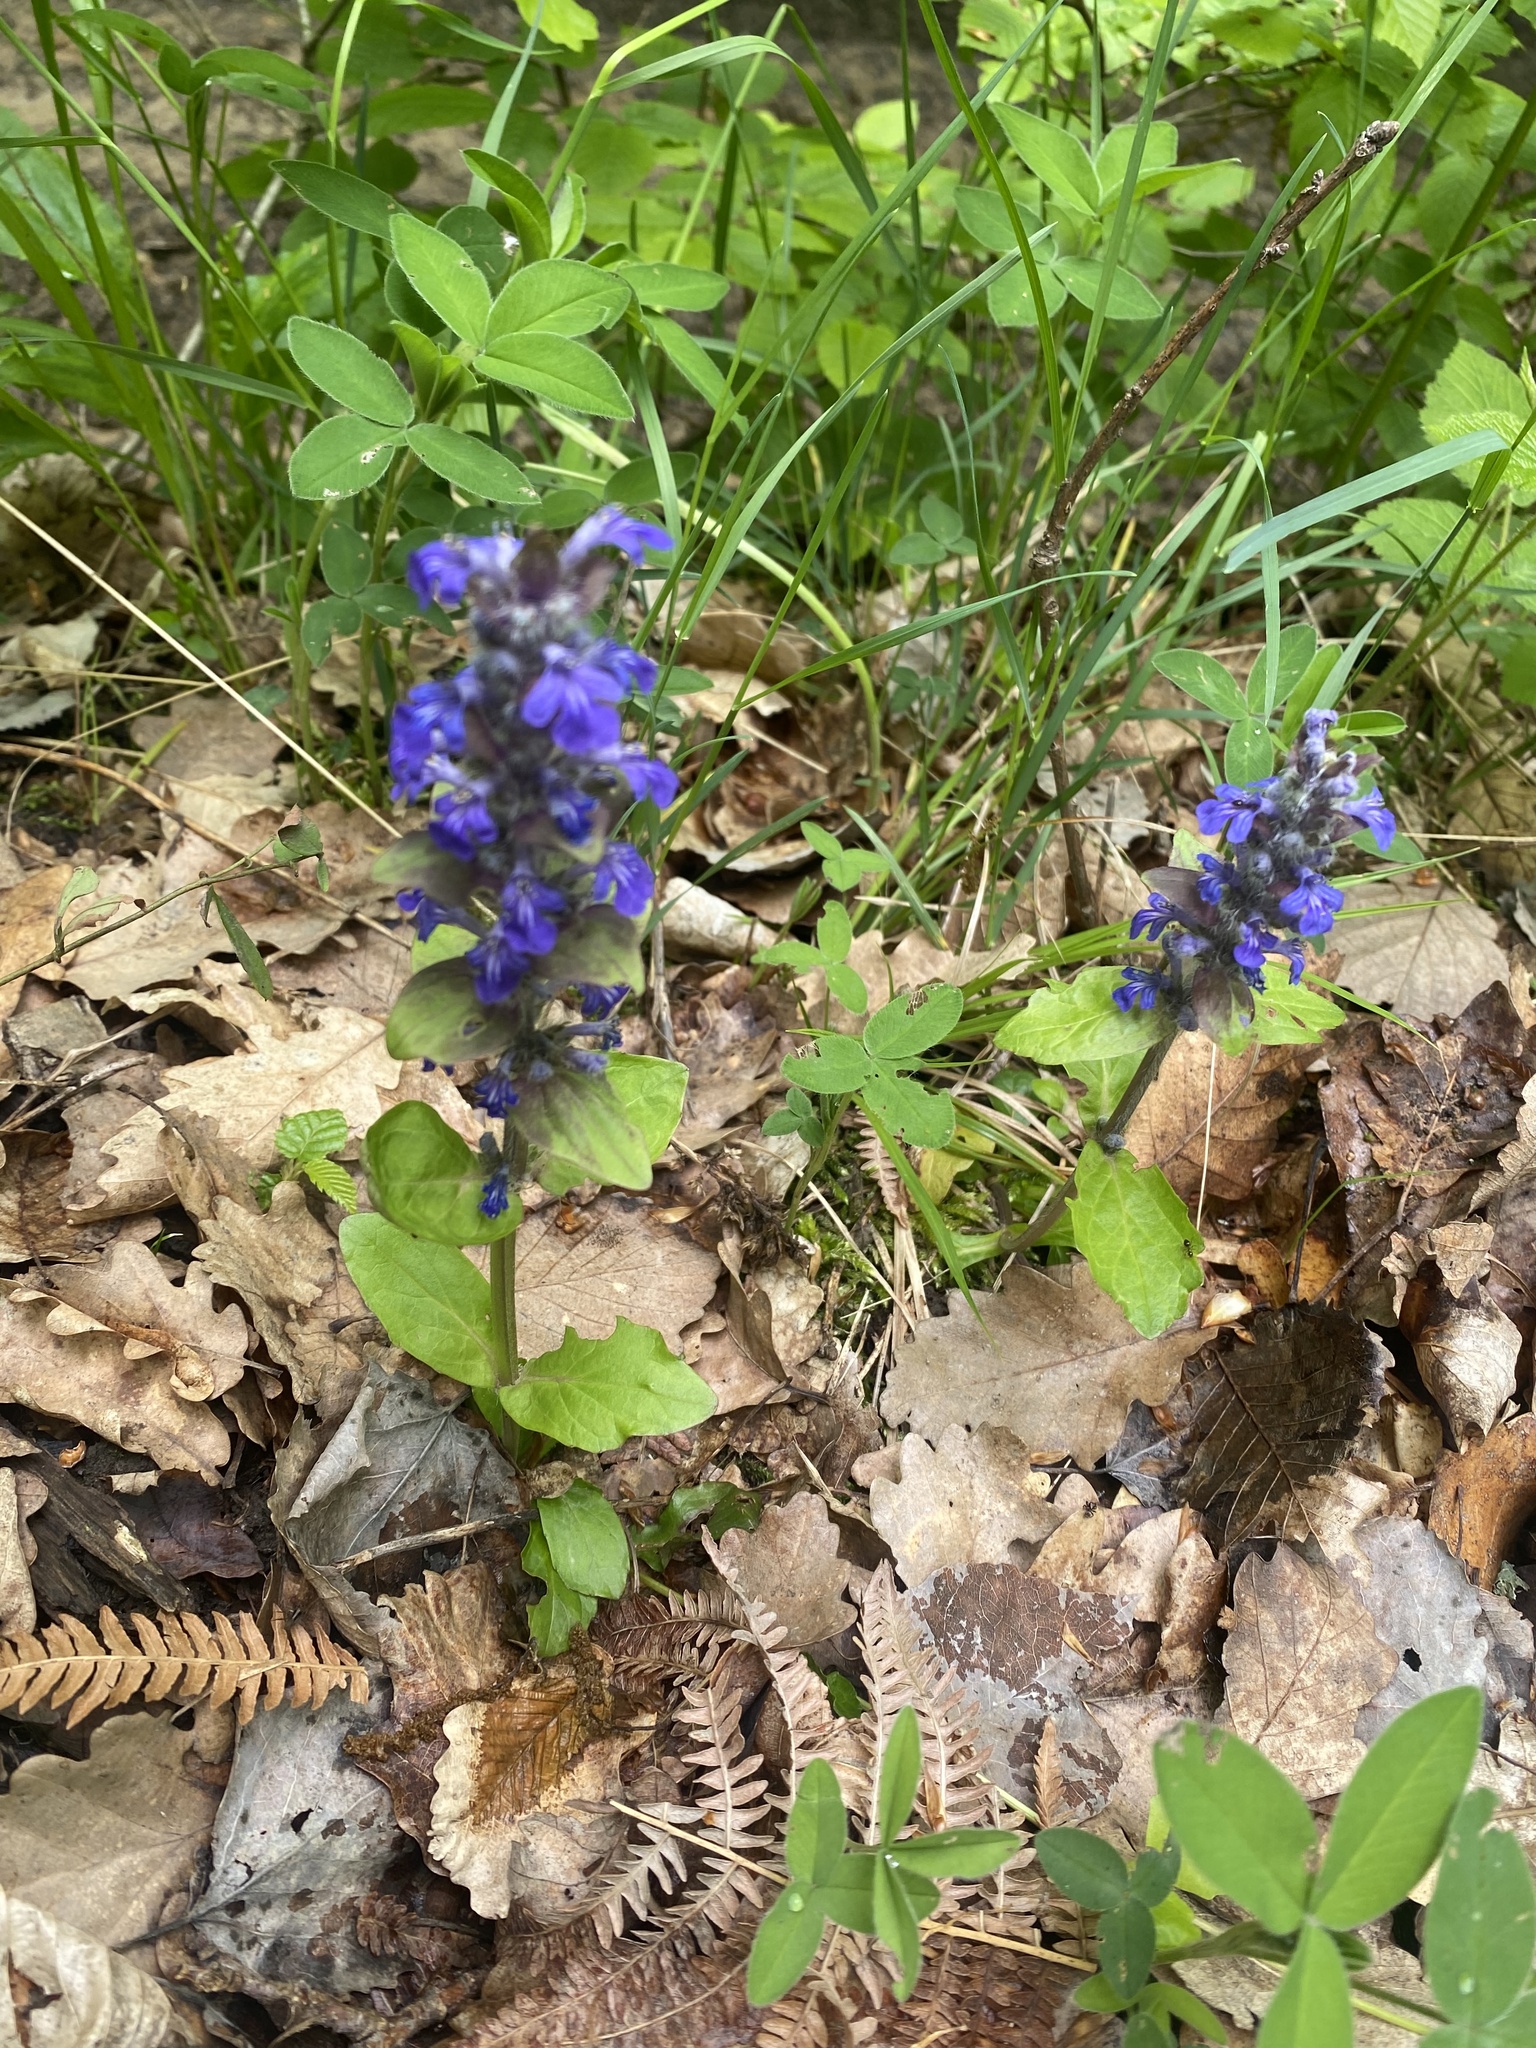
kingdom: Plantae
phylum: Tracheophyta
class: Magnoliopsida
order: Lamiales
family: Lamiaceae
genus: Ajuga
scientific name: Ajuga reptans
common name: Bugle
